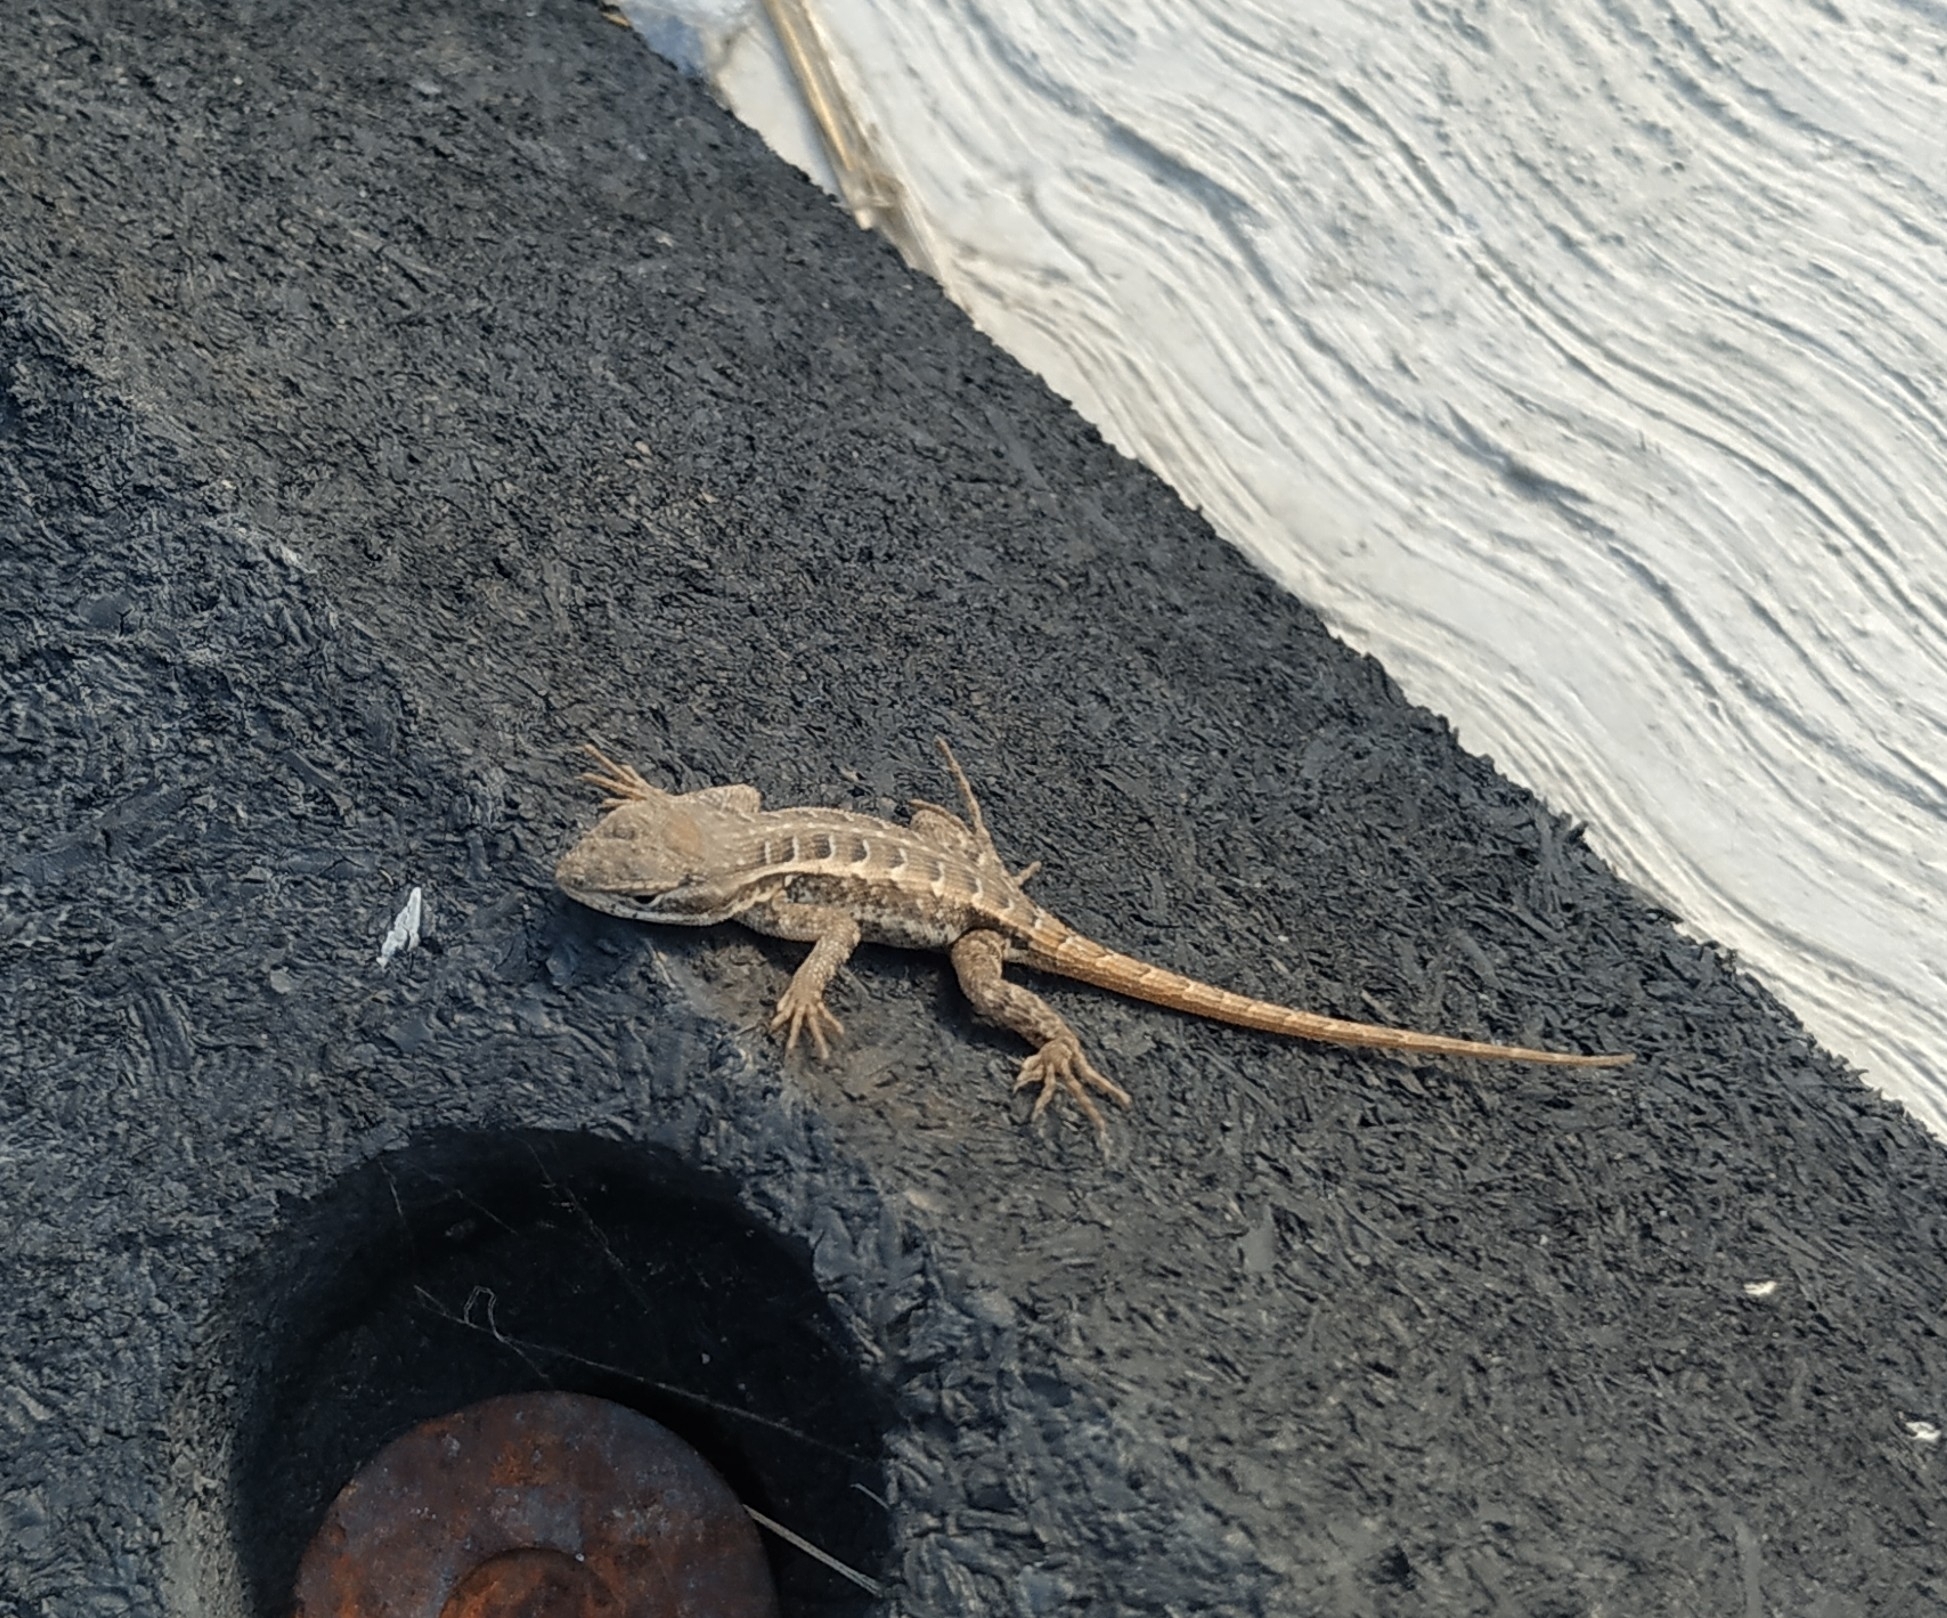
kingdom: Animalia
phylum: Chordata
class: Squamata
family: Phrynosomatidae
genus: Sceloporus
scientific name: Sceloporus variabilis
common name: Rosebelly lizard
